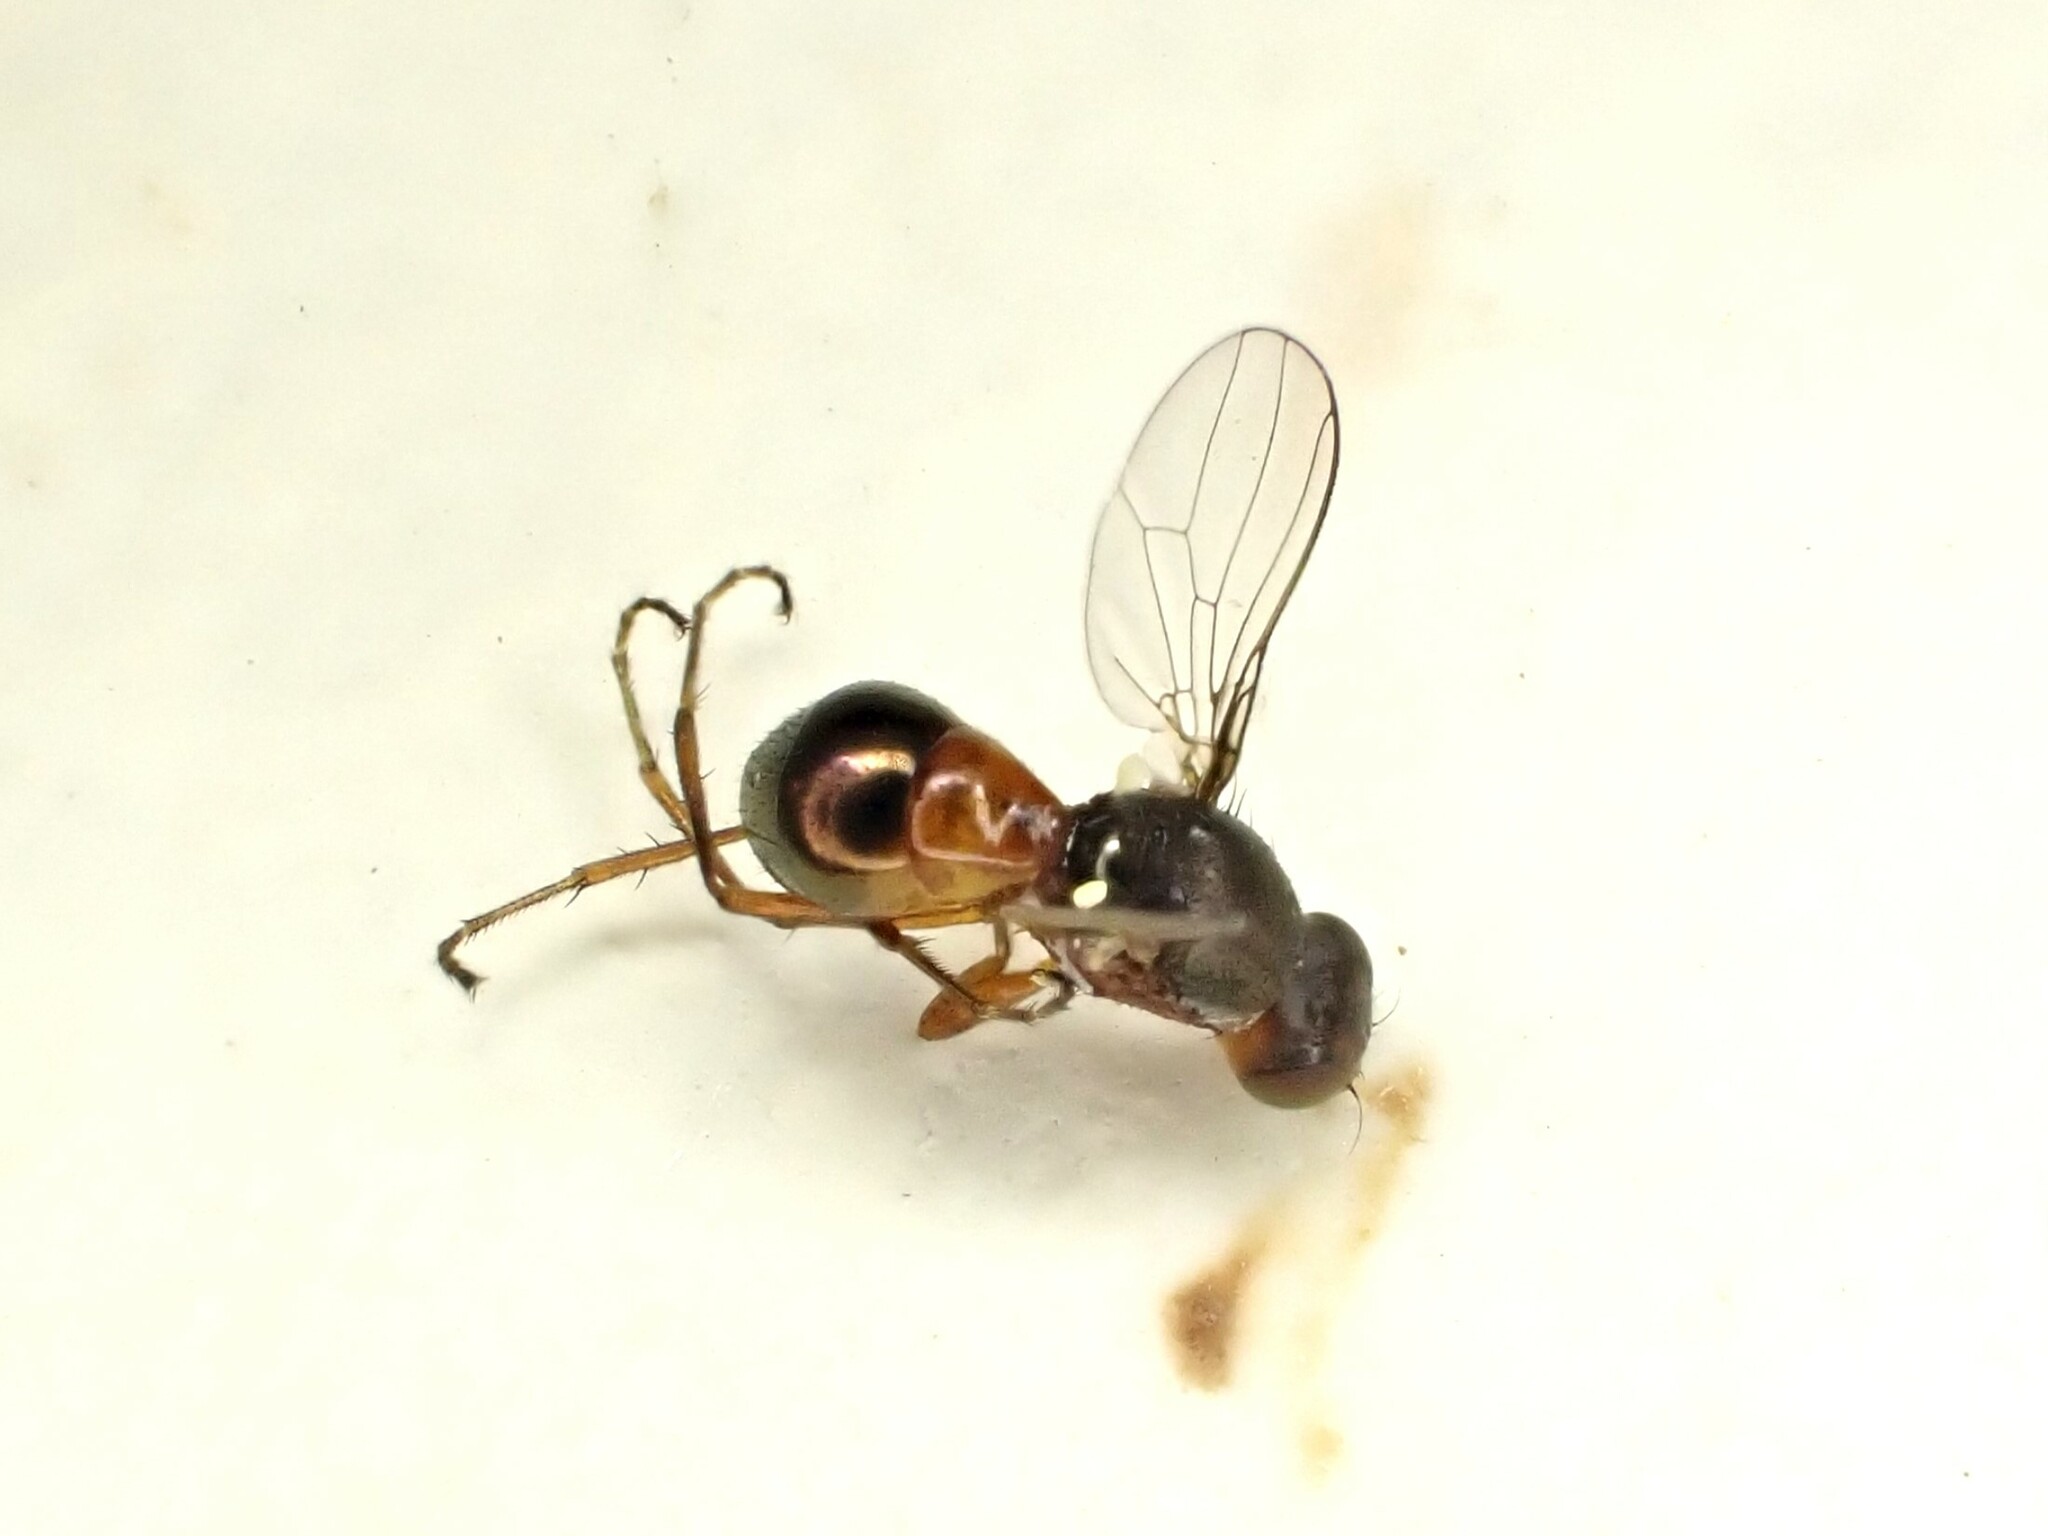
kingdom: Animalia
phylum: Arthropoda
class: Insecta
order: Diptera
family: Sepsidae
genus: Lasionemopoda
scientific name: Lasionemopoda hirsuta
